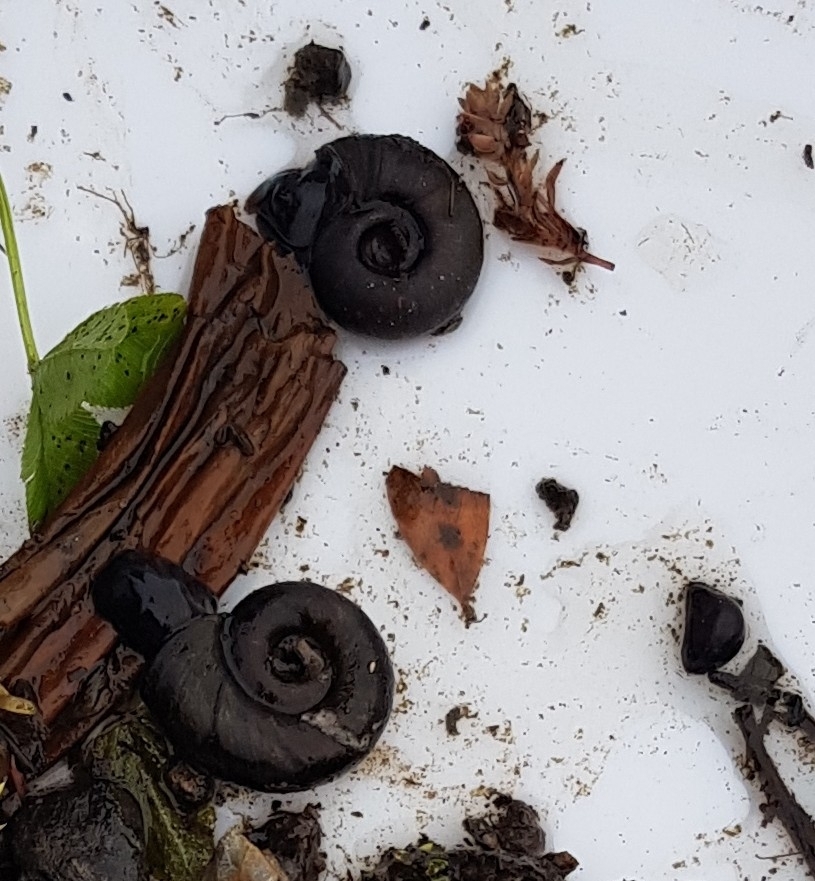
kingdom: Animalia
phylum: Mollusca
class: Gastropoda
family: Planorbidae
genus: Planorbarius
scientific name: Planorbarius corneus
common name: Great ramshorn
